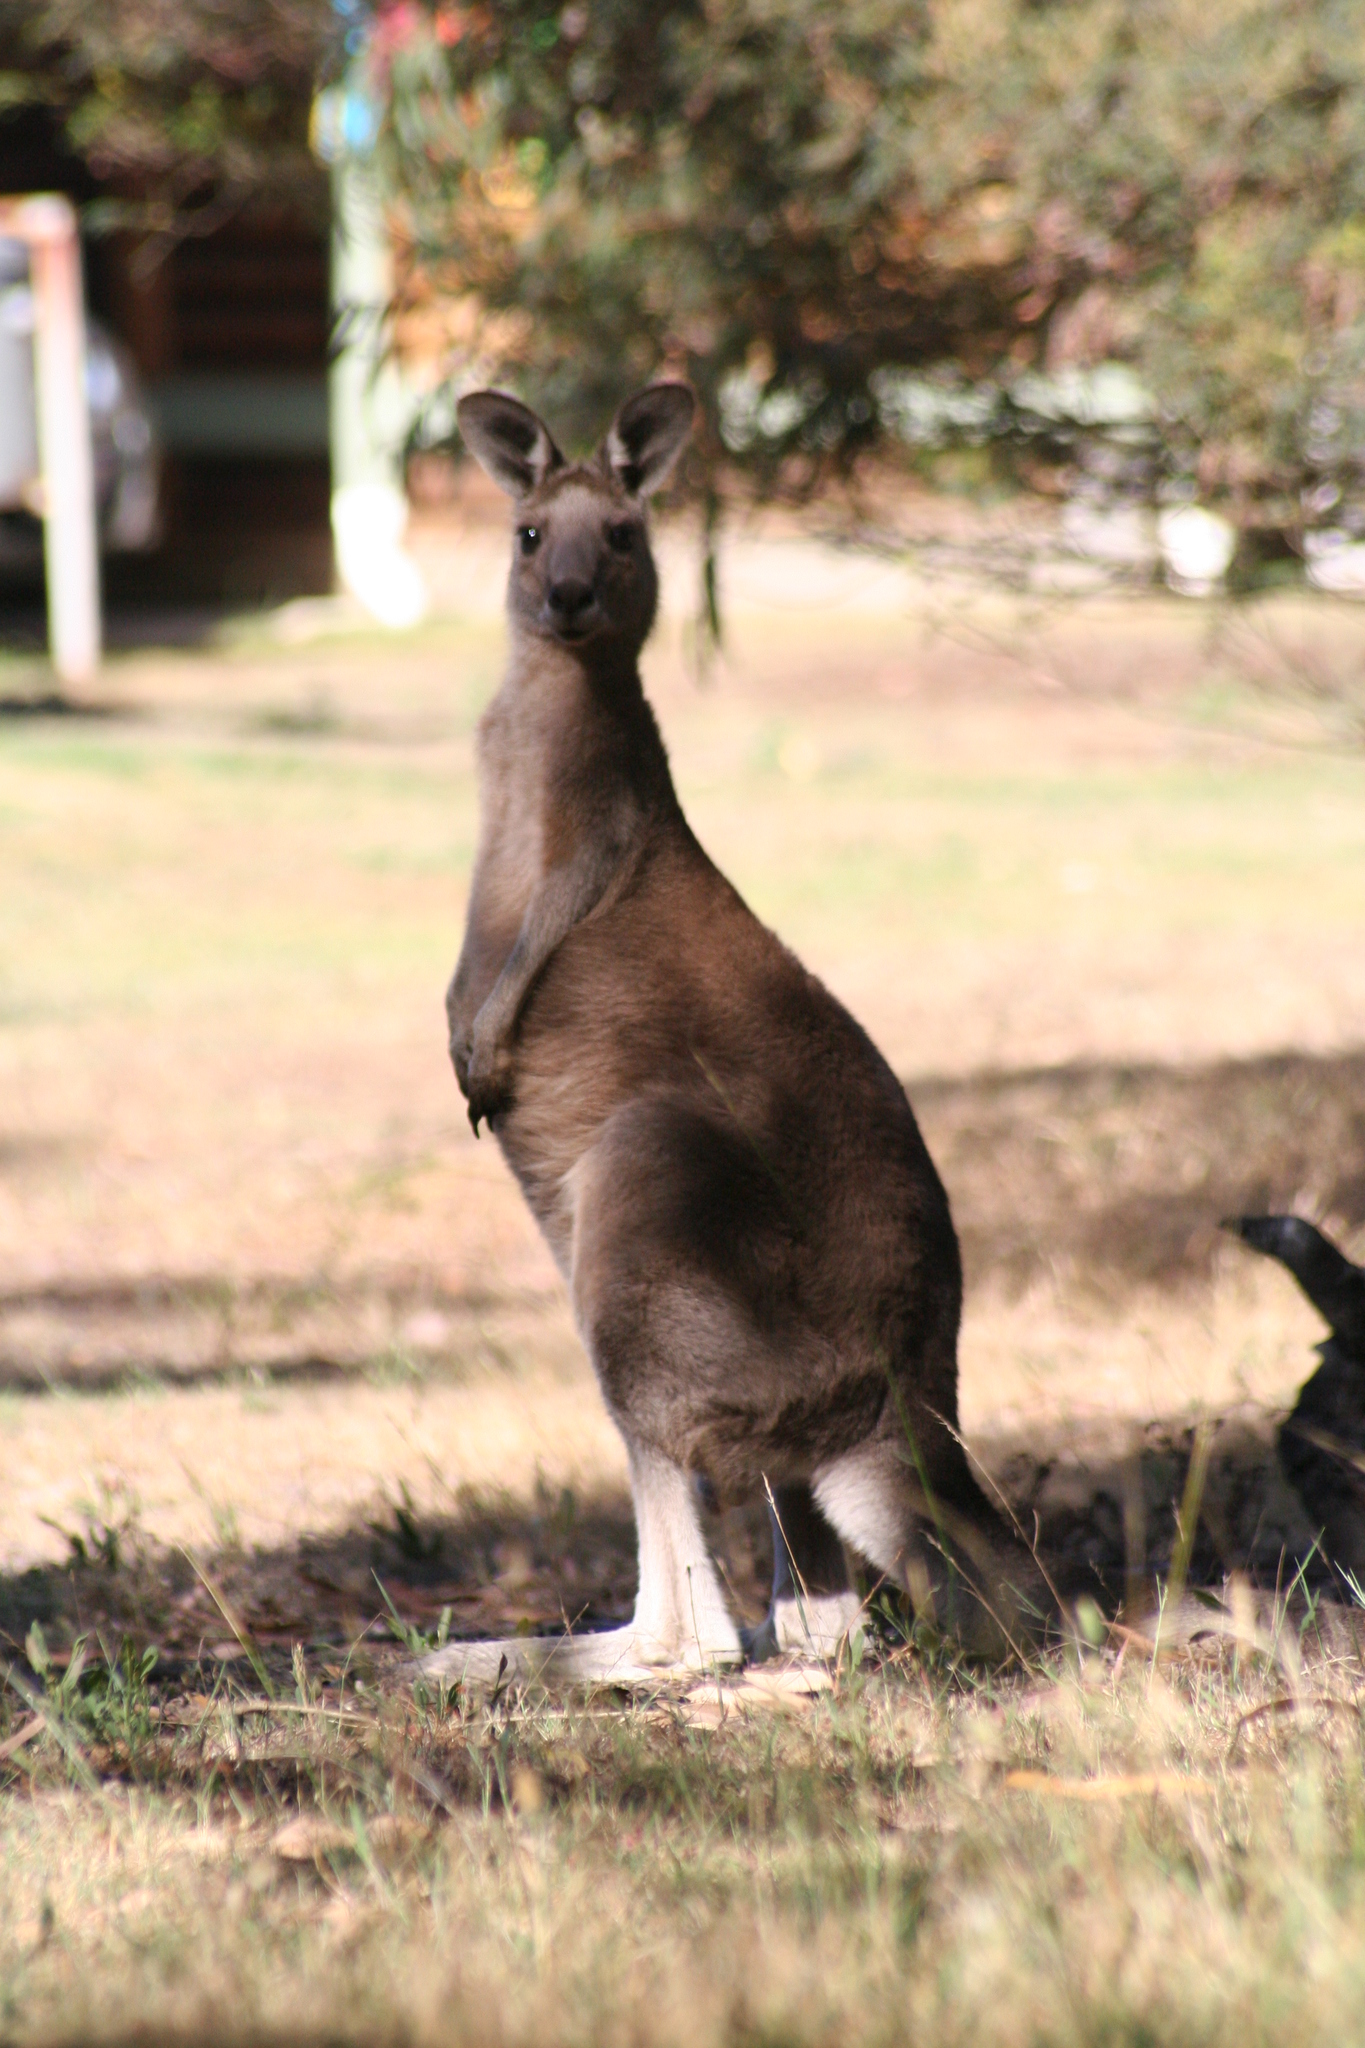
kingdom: Animalia
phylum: Chordata
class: Mammalia
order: Diprotodontia
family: Macropodidae
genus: Macropus
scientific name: Macropus giganteus
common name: Eastern grey kangaroo
